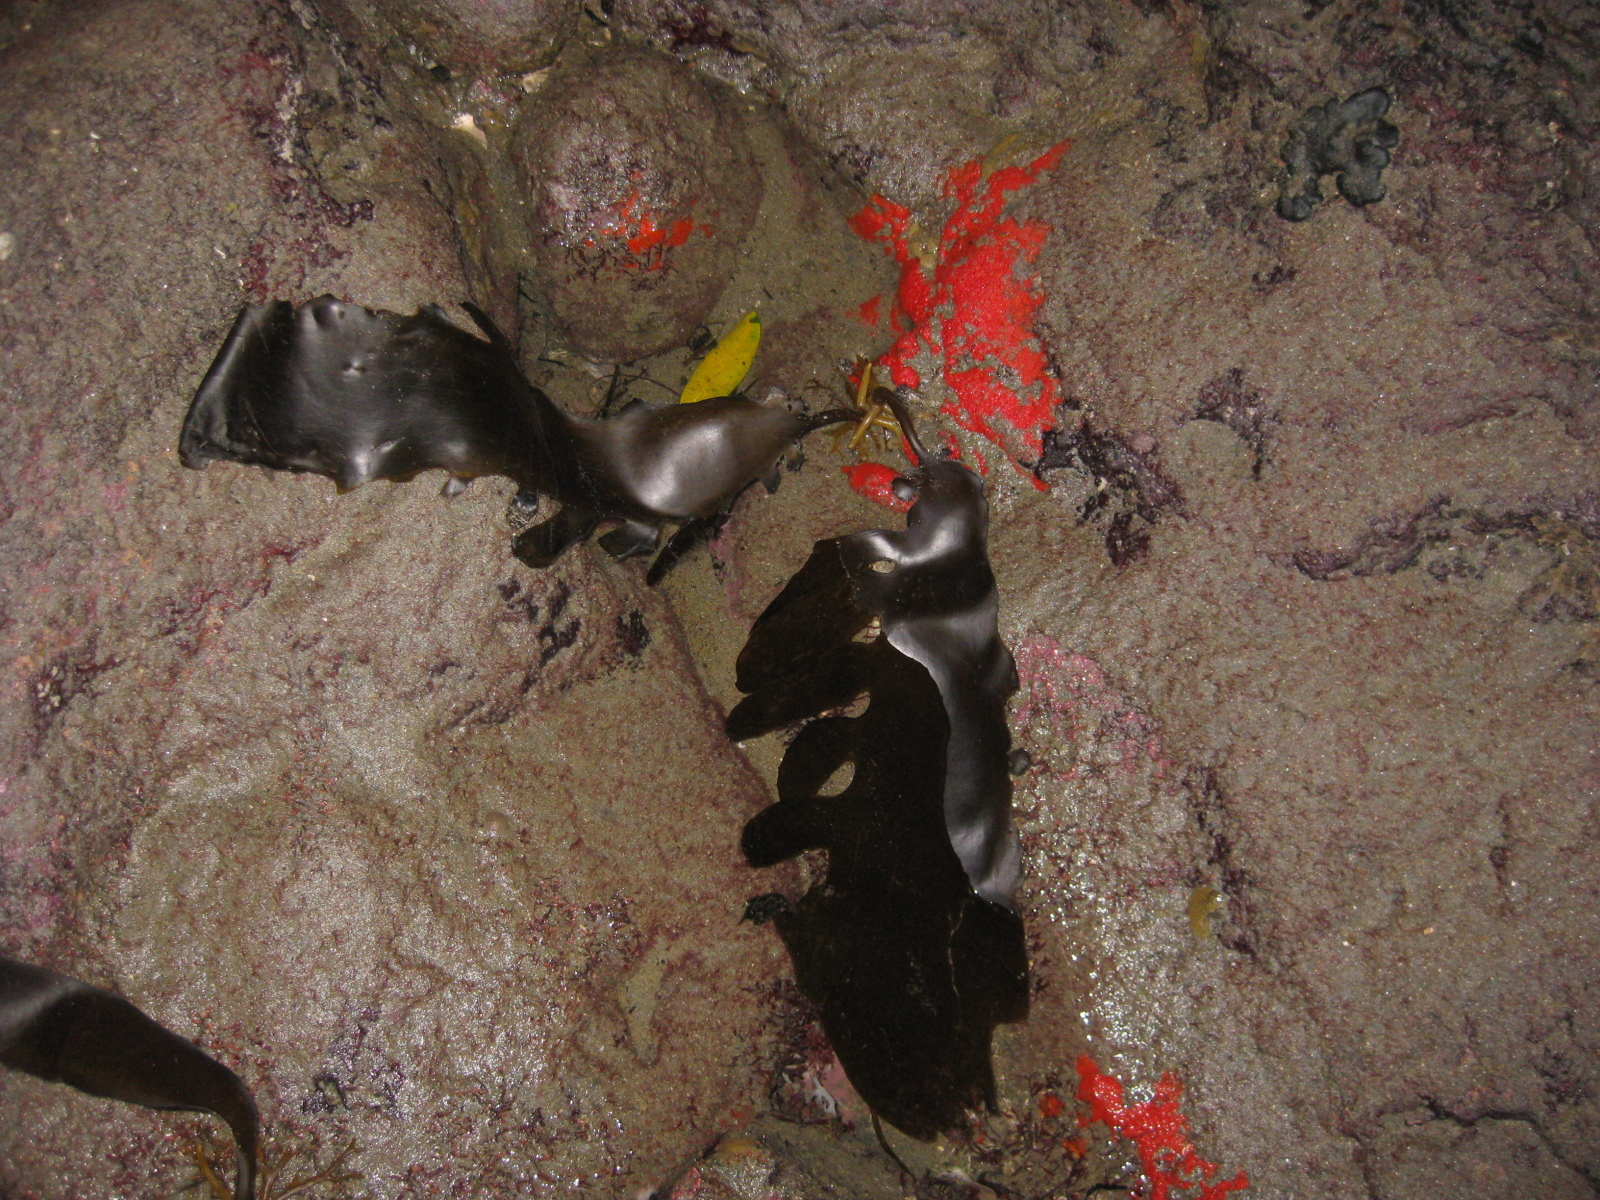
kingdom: Chromista
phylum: Ochrophyta
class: Phaeophyceae
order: Laminariales
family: Lessoniaceae
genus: Ecklonia
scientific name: Ecklonia radiata
